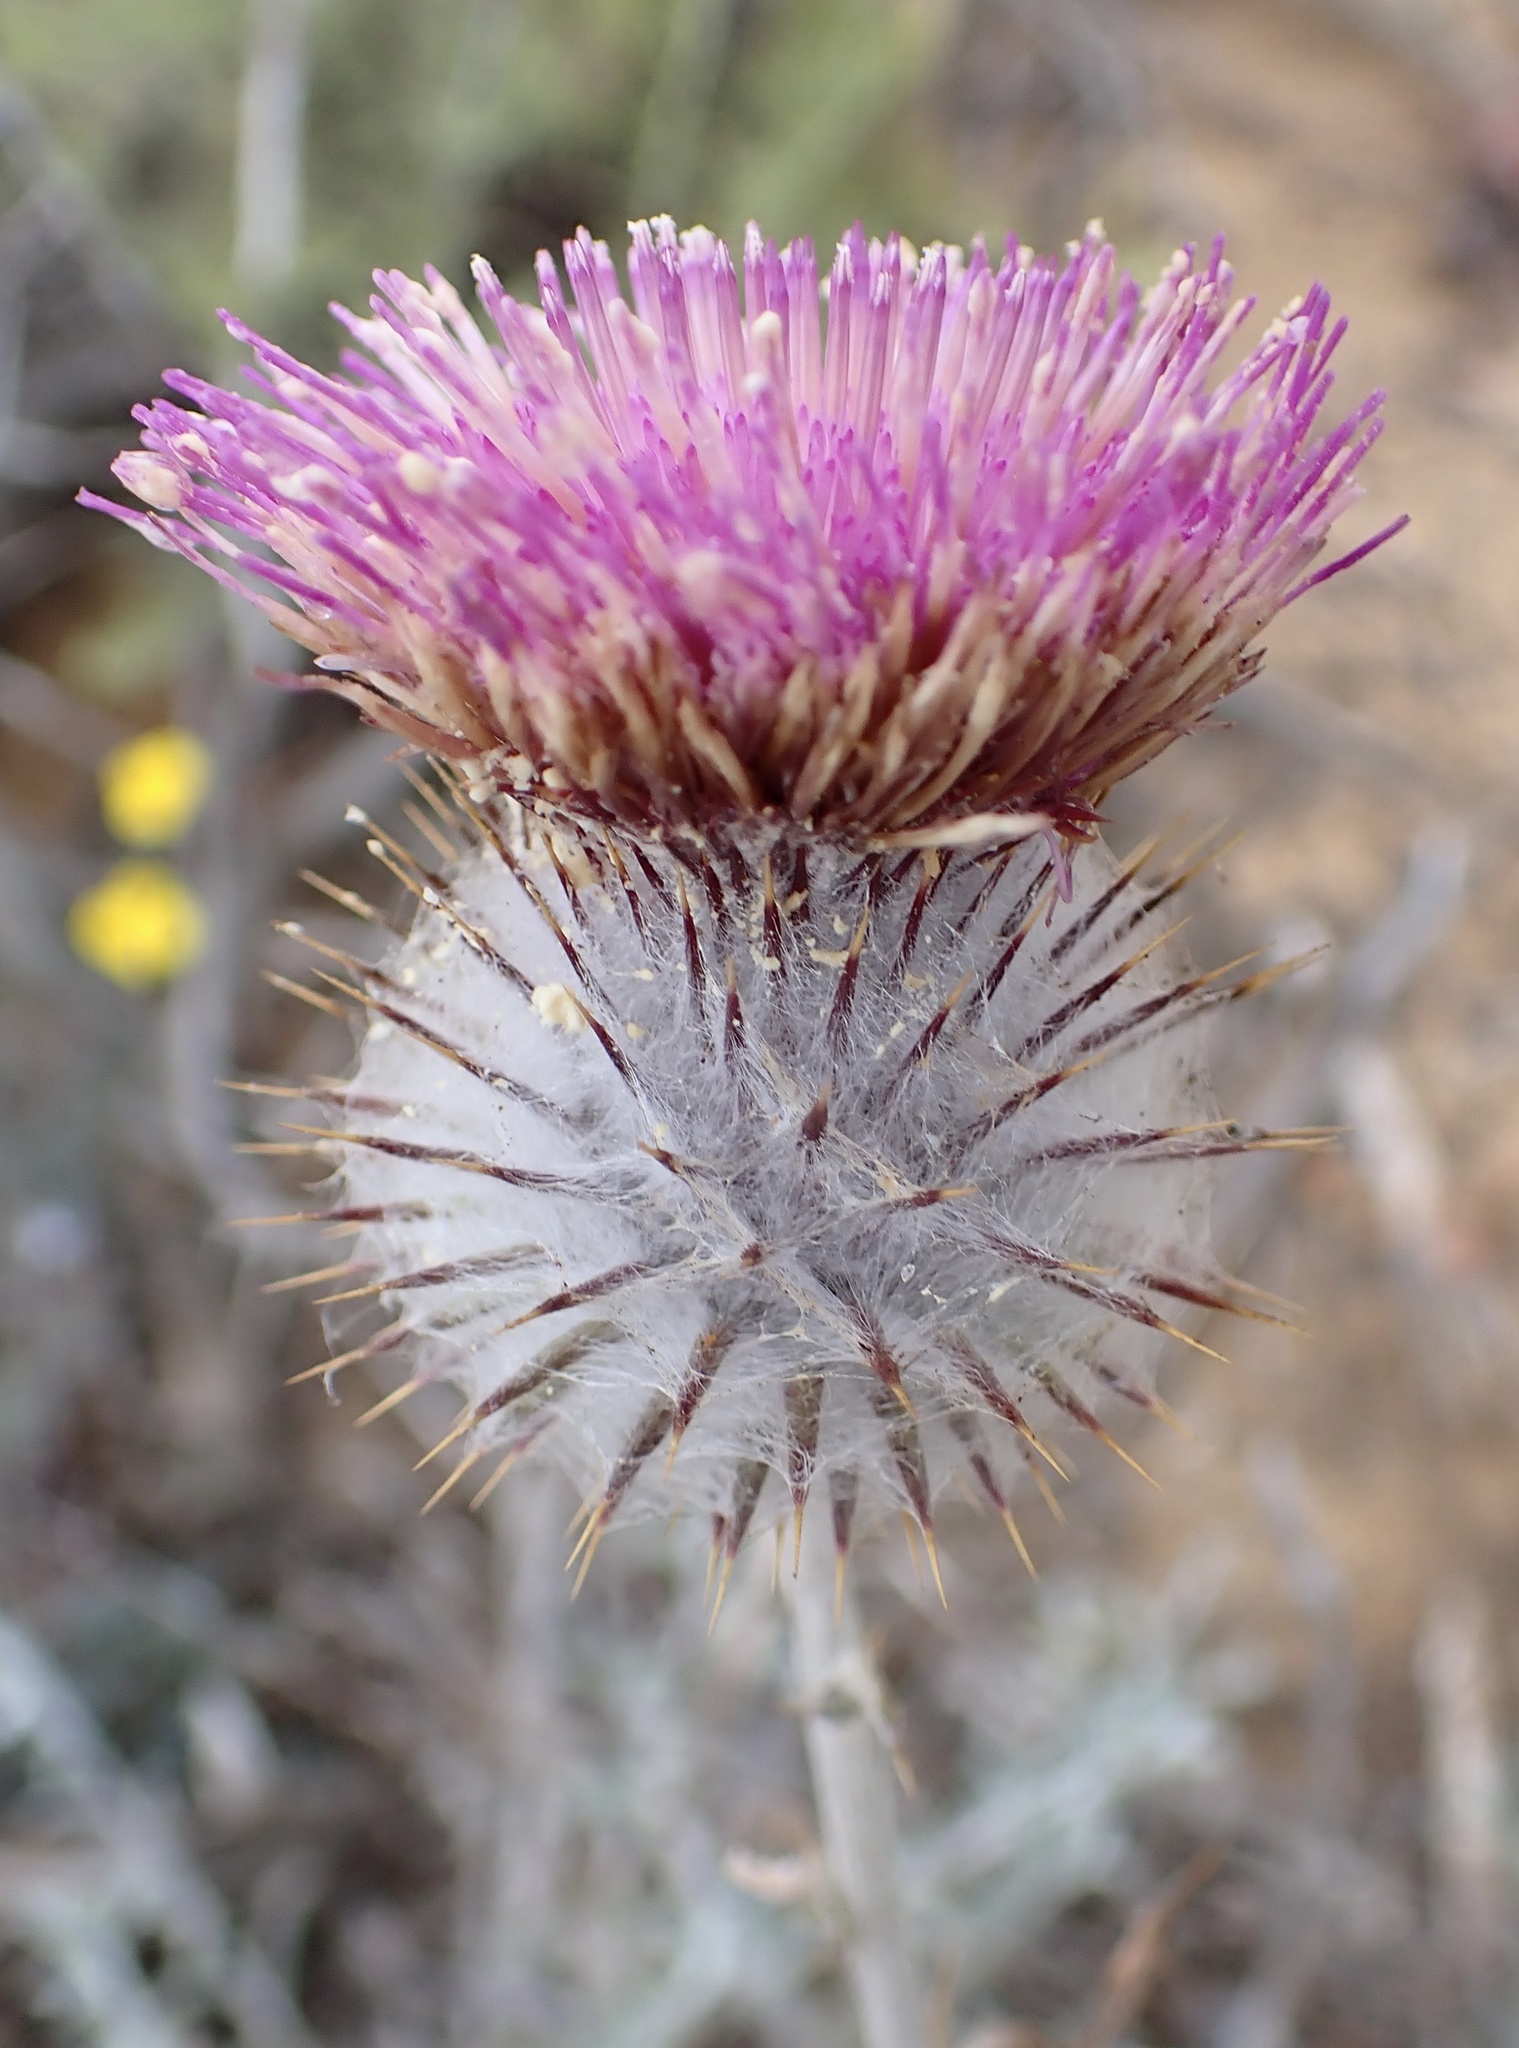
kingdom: Plantae
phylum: Tracheophyta
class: Magnoliopsida
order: Asterales
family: Asteraceae
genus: Cirsium
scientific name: Cirsium occidentale
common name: Western thistle
